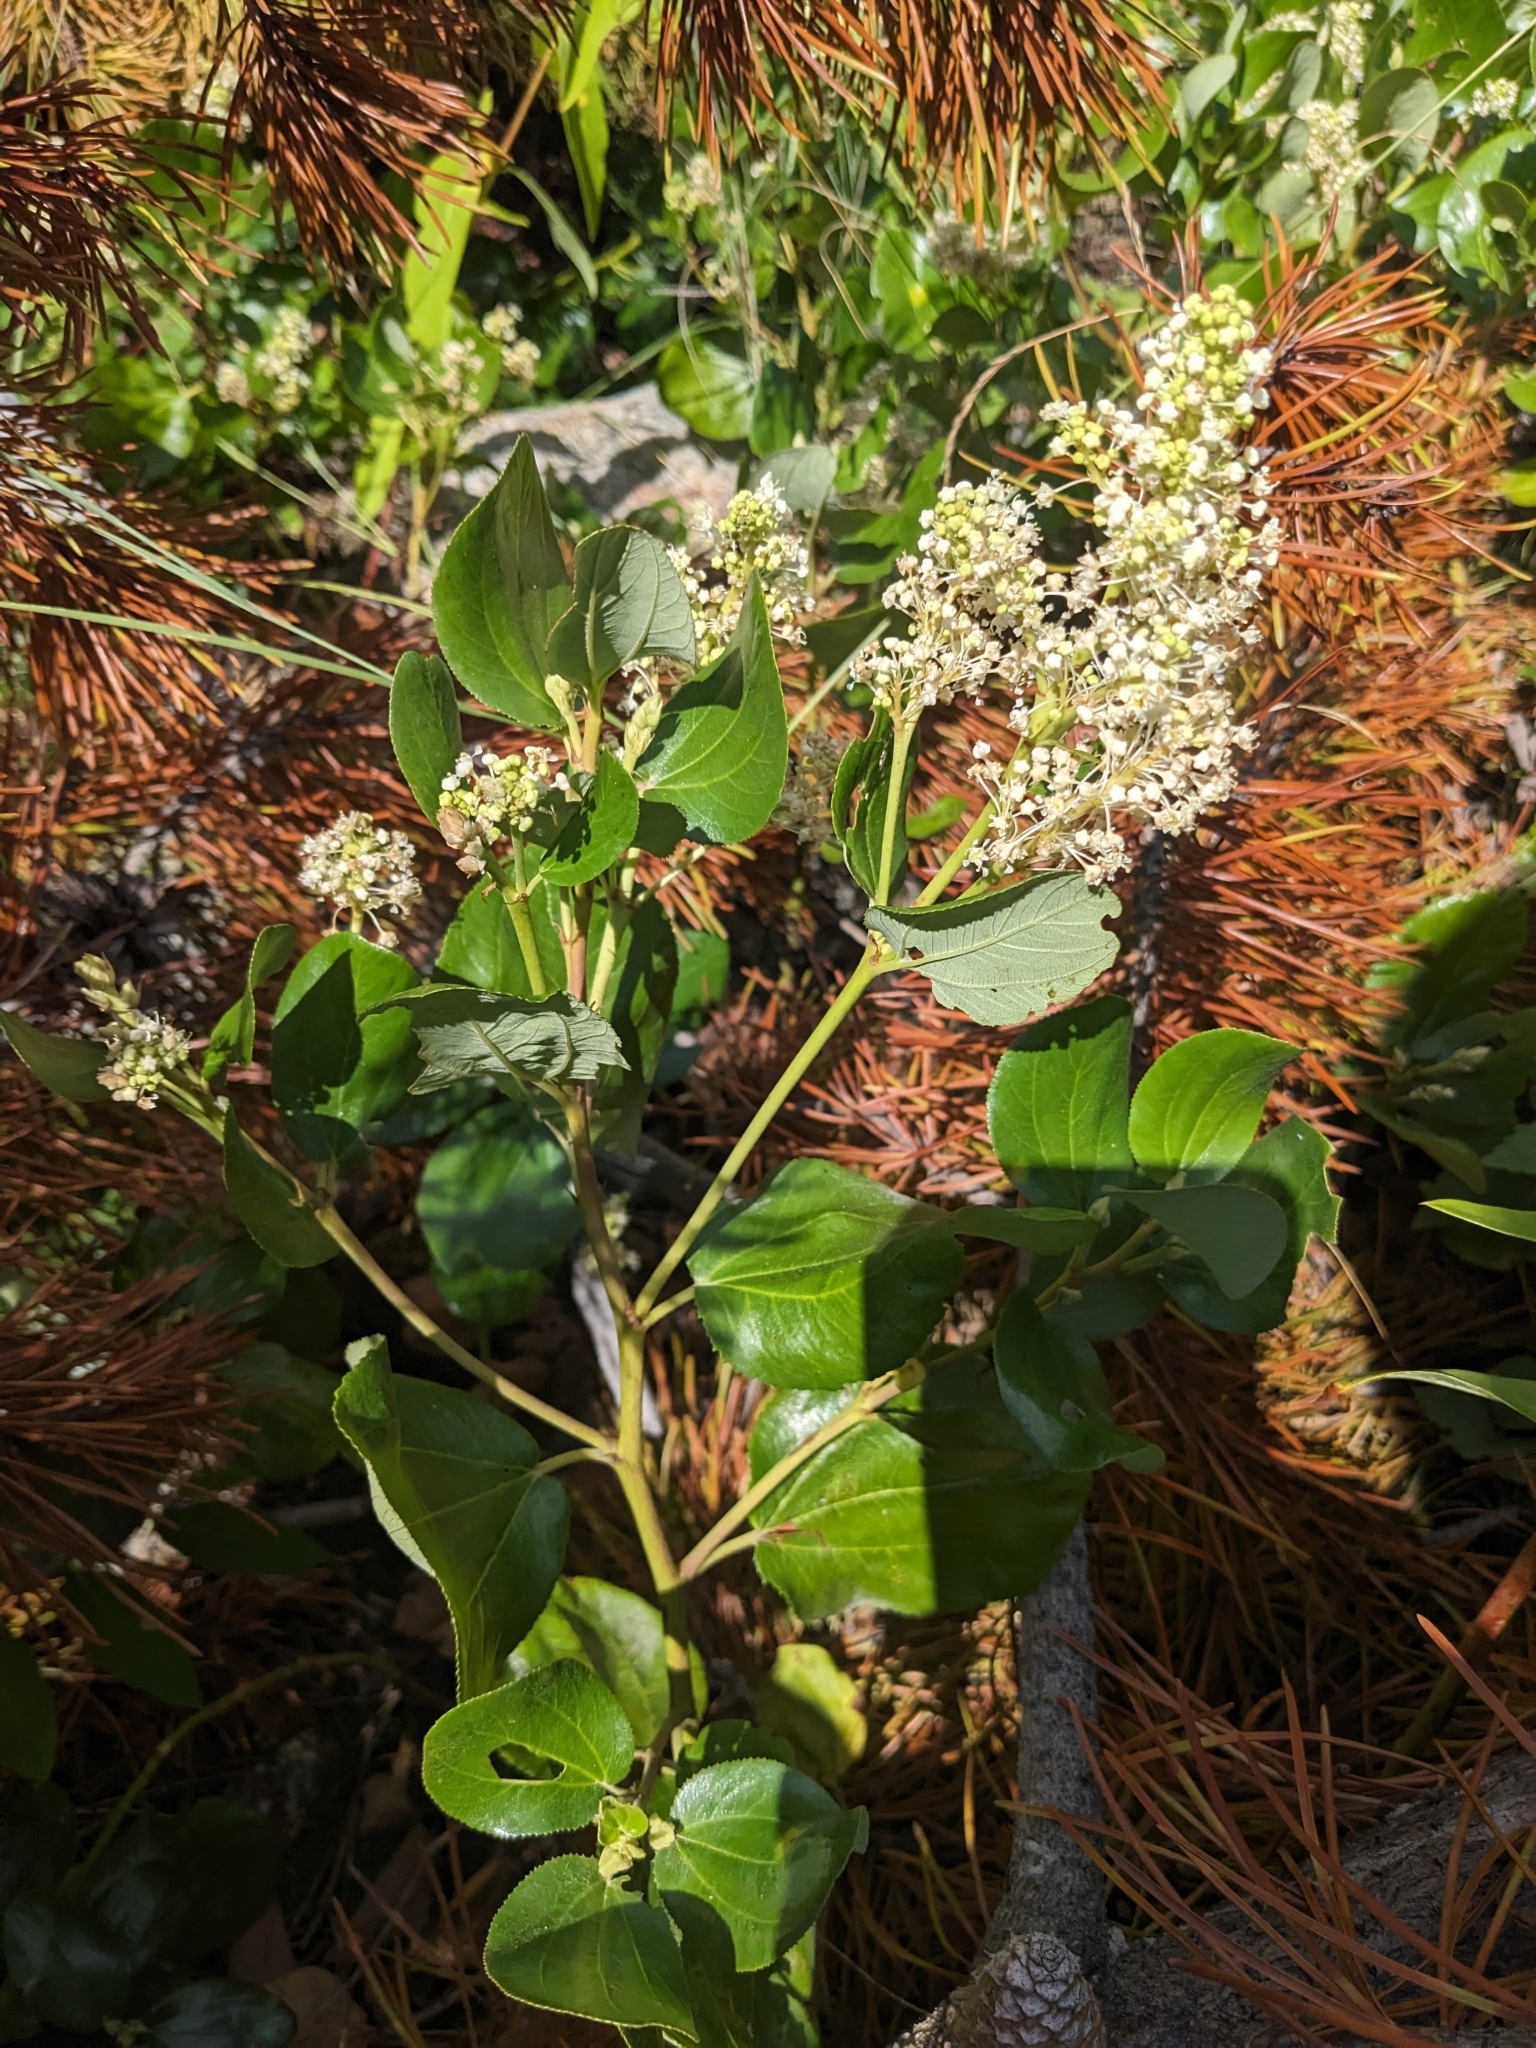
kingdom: Plantae
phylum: Tracheophyta
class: Magnoliopsida
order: Rosales
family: Rhamnaceae
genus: Ceanothus
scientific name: Ceanothus velutinus
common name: Snowbrush
